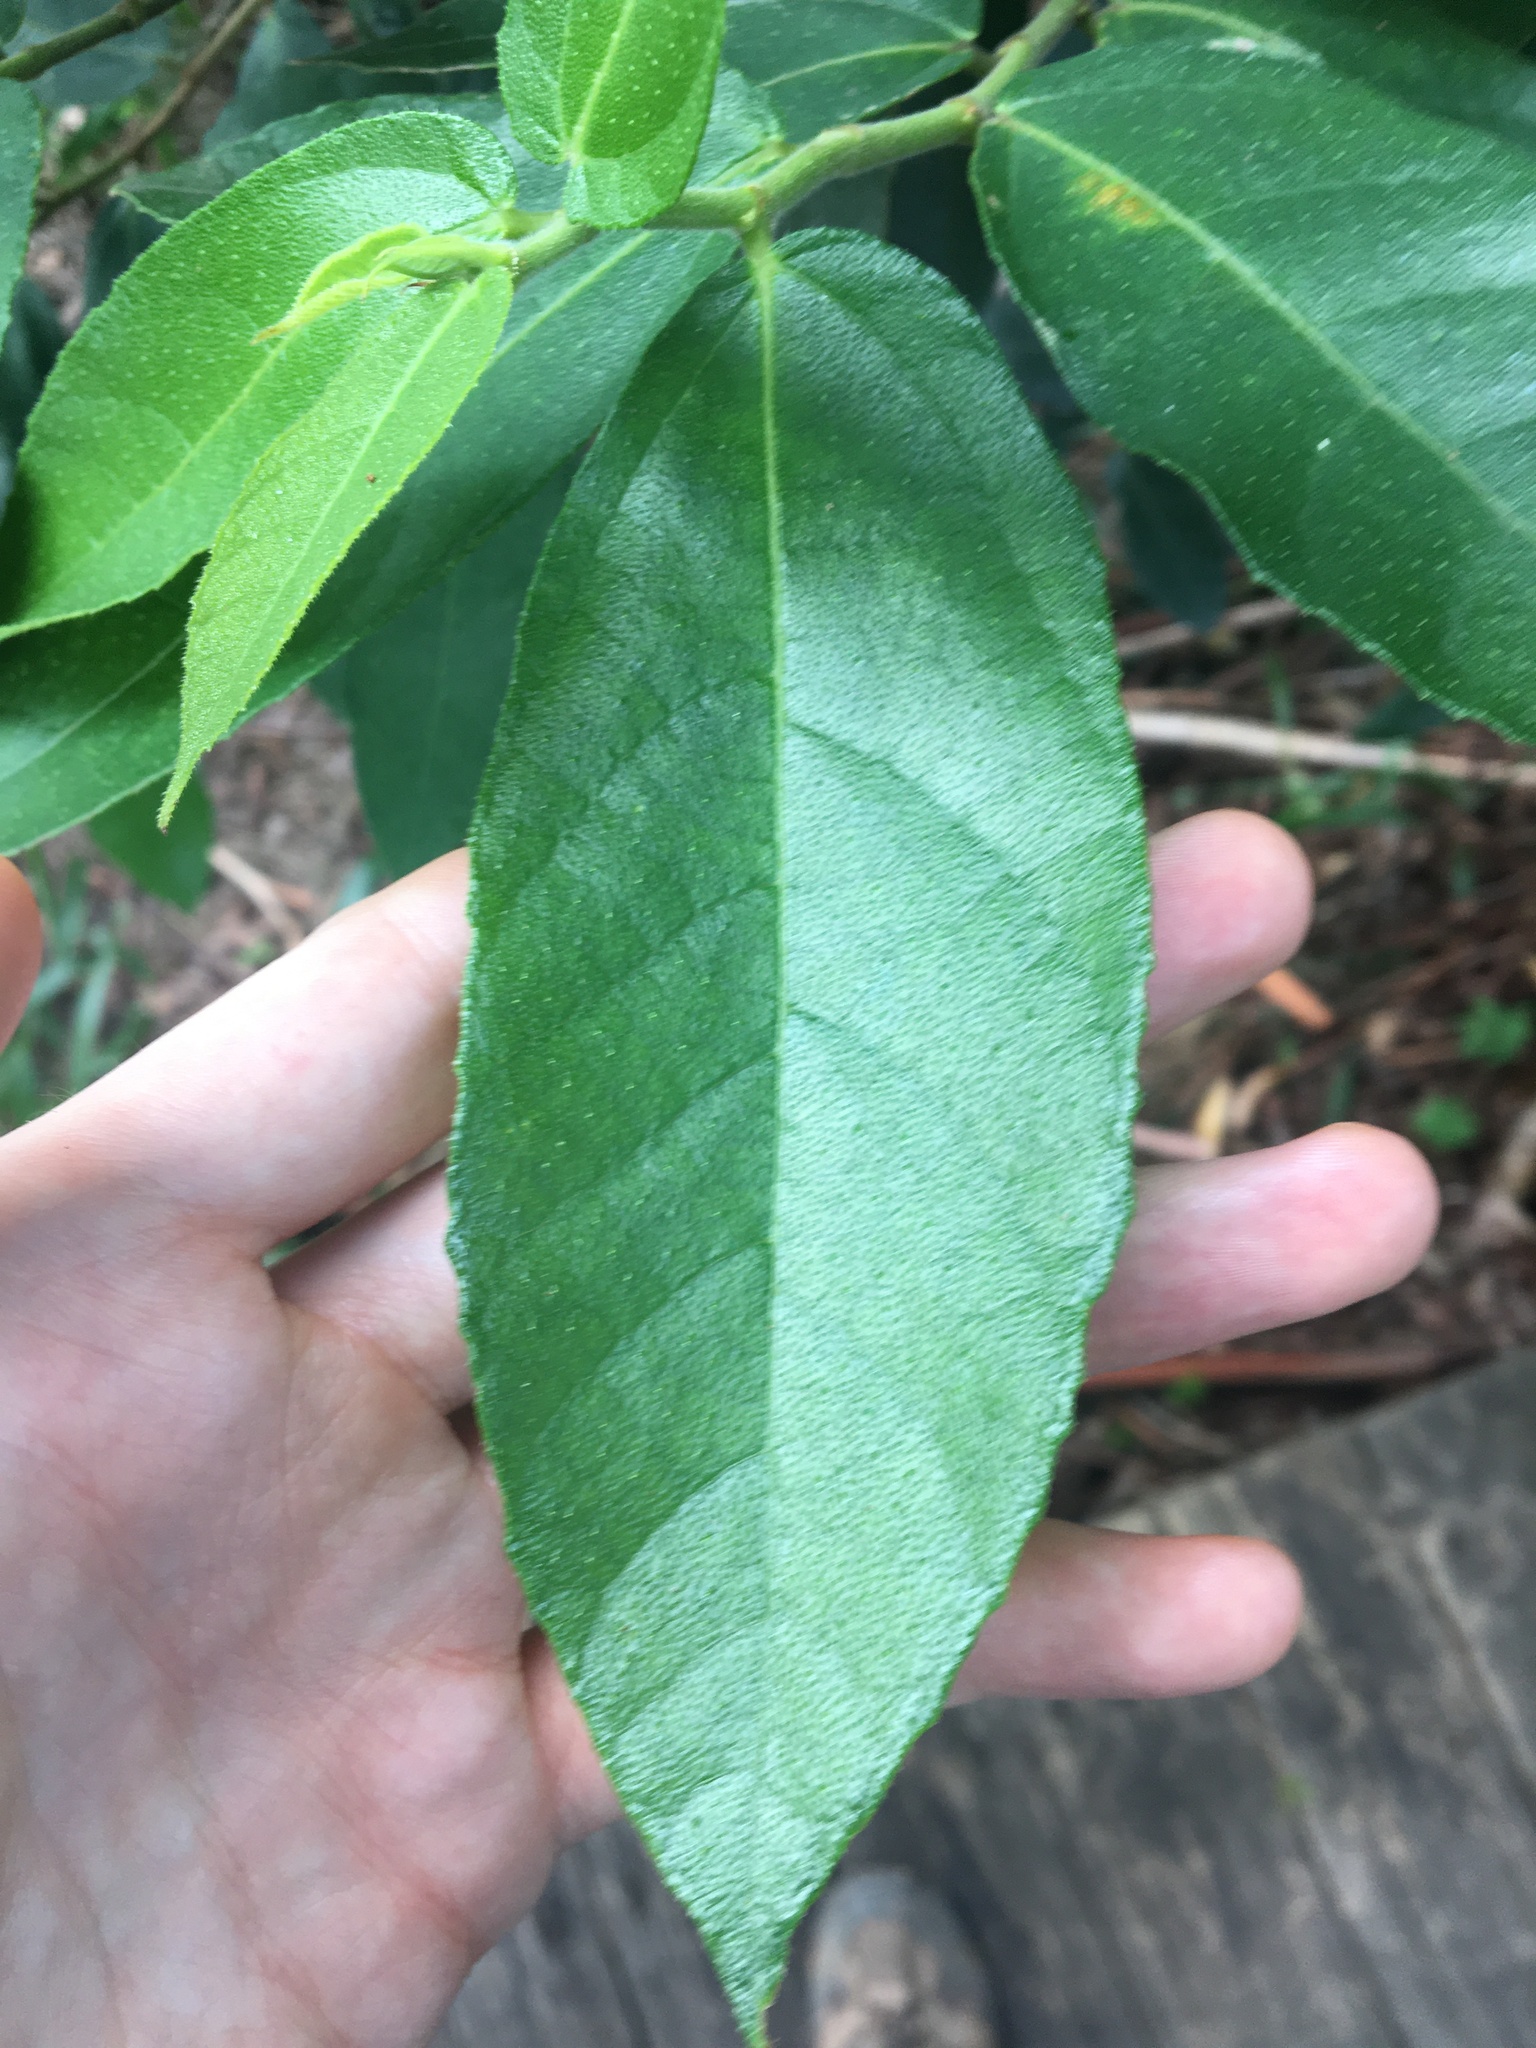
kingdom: Plantae
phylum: Tracheophyta
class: Magnoliopsida
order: Rosales
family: Moraceae
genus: Ficus
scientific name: Ficus coronata
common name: Creek sandpaper fig
